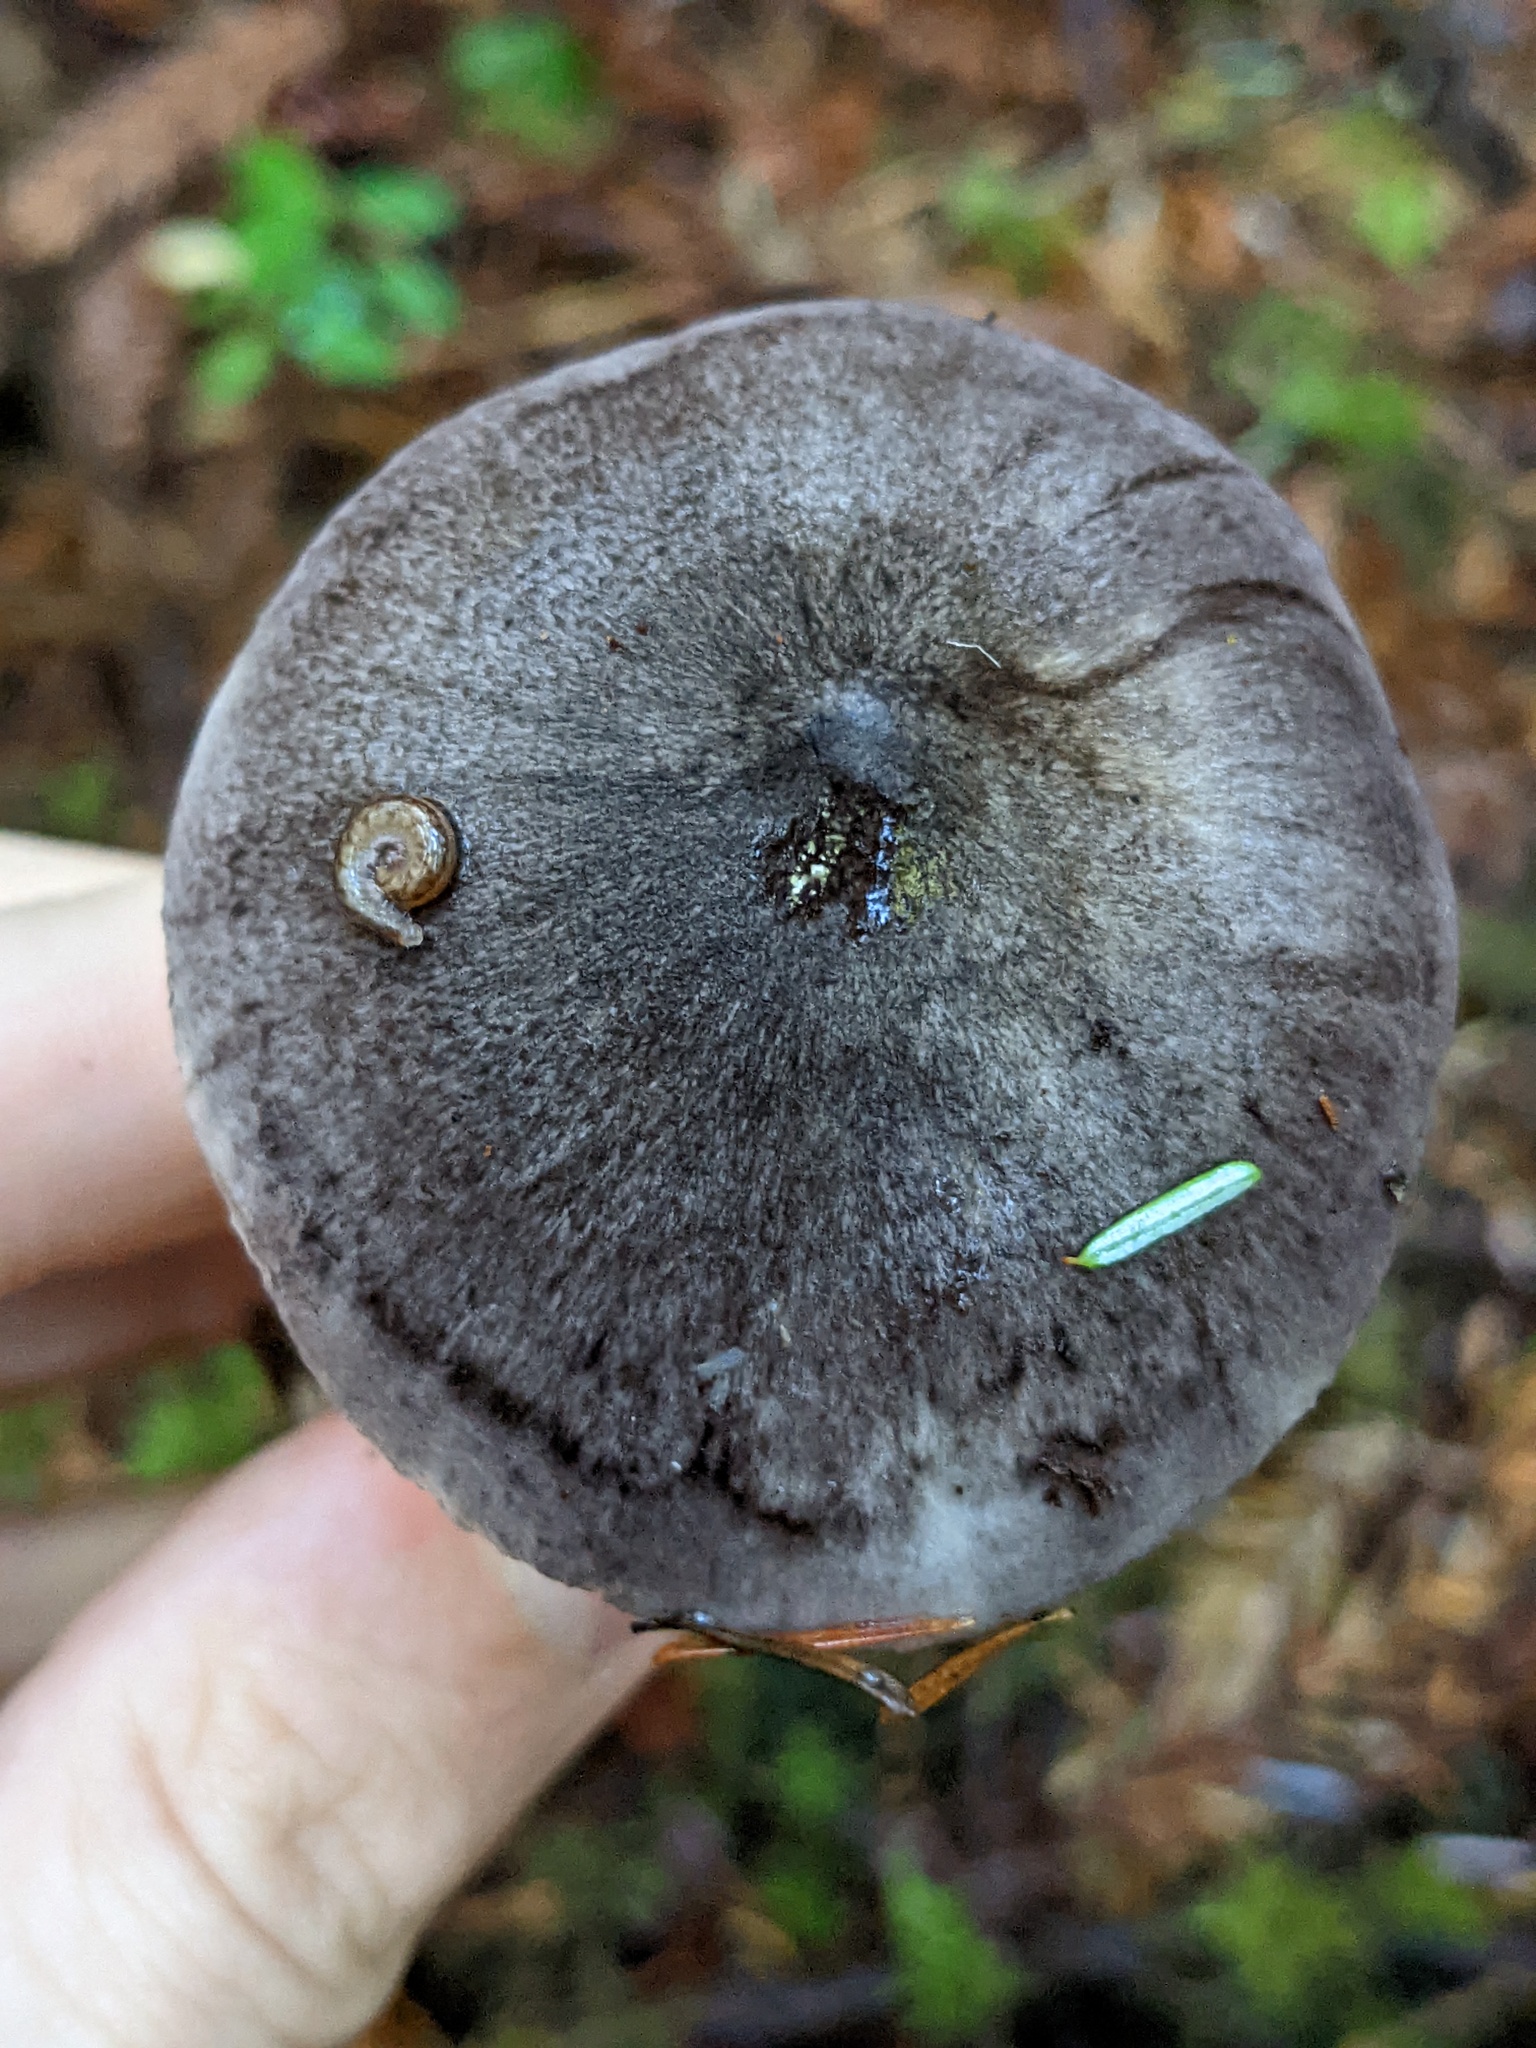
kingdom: Fungi
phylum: Basidiomycota
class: Agaricomycetes
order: Agaricales
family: Tricholomataceae
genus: Tricholoma
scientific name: Tricholoma terreum
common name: Grey knight
